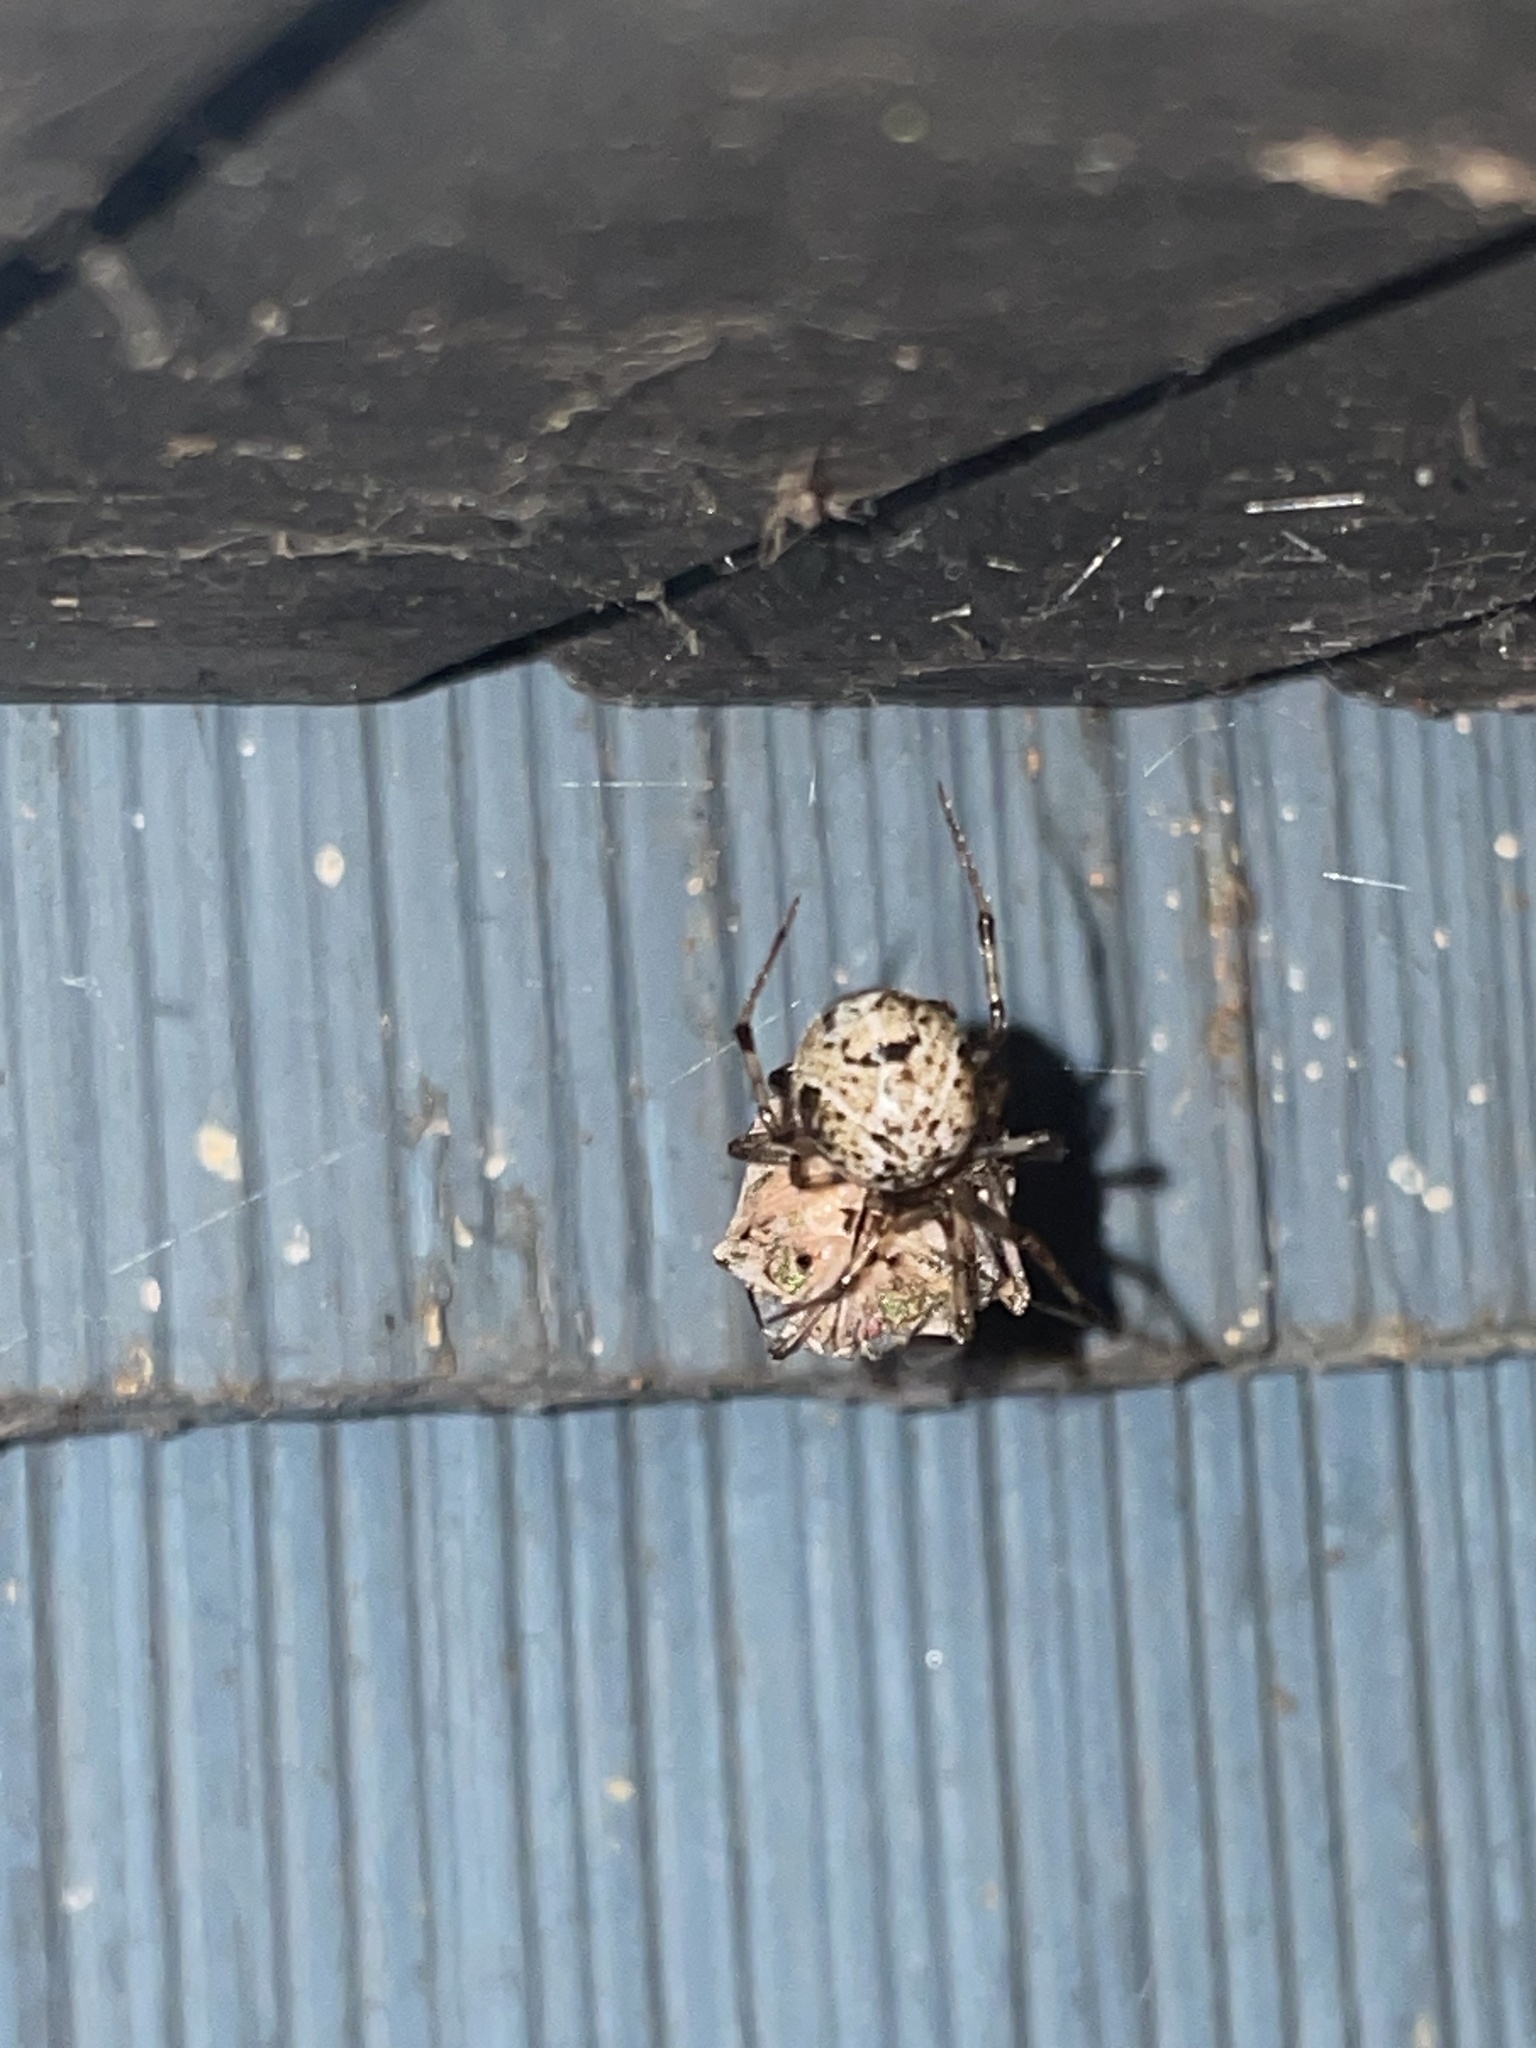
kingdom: Animalia
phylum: Arthropoda
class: Arachnida
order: Araneae
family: Theridiidae
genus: Parasteatoda
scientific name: Parasteatoda tepidariorum
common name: Common house spider
